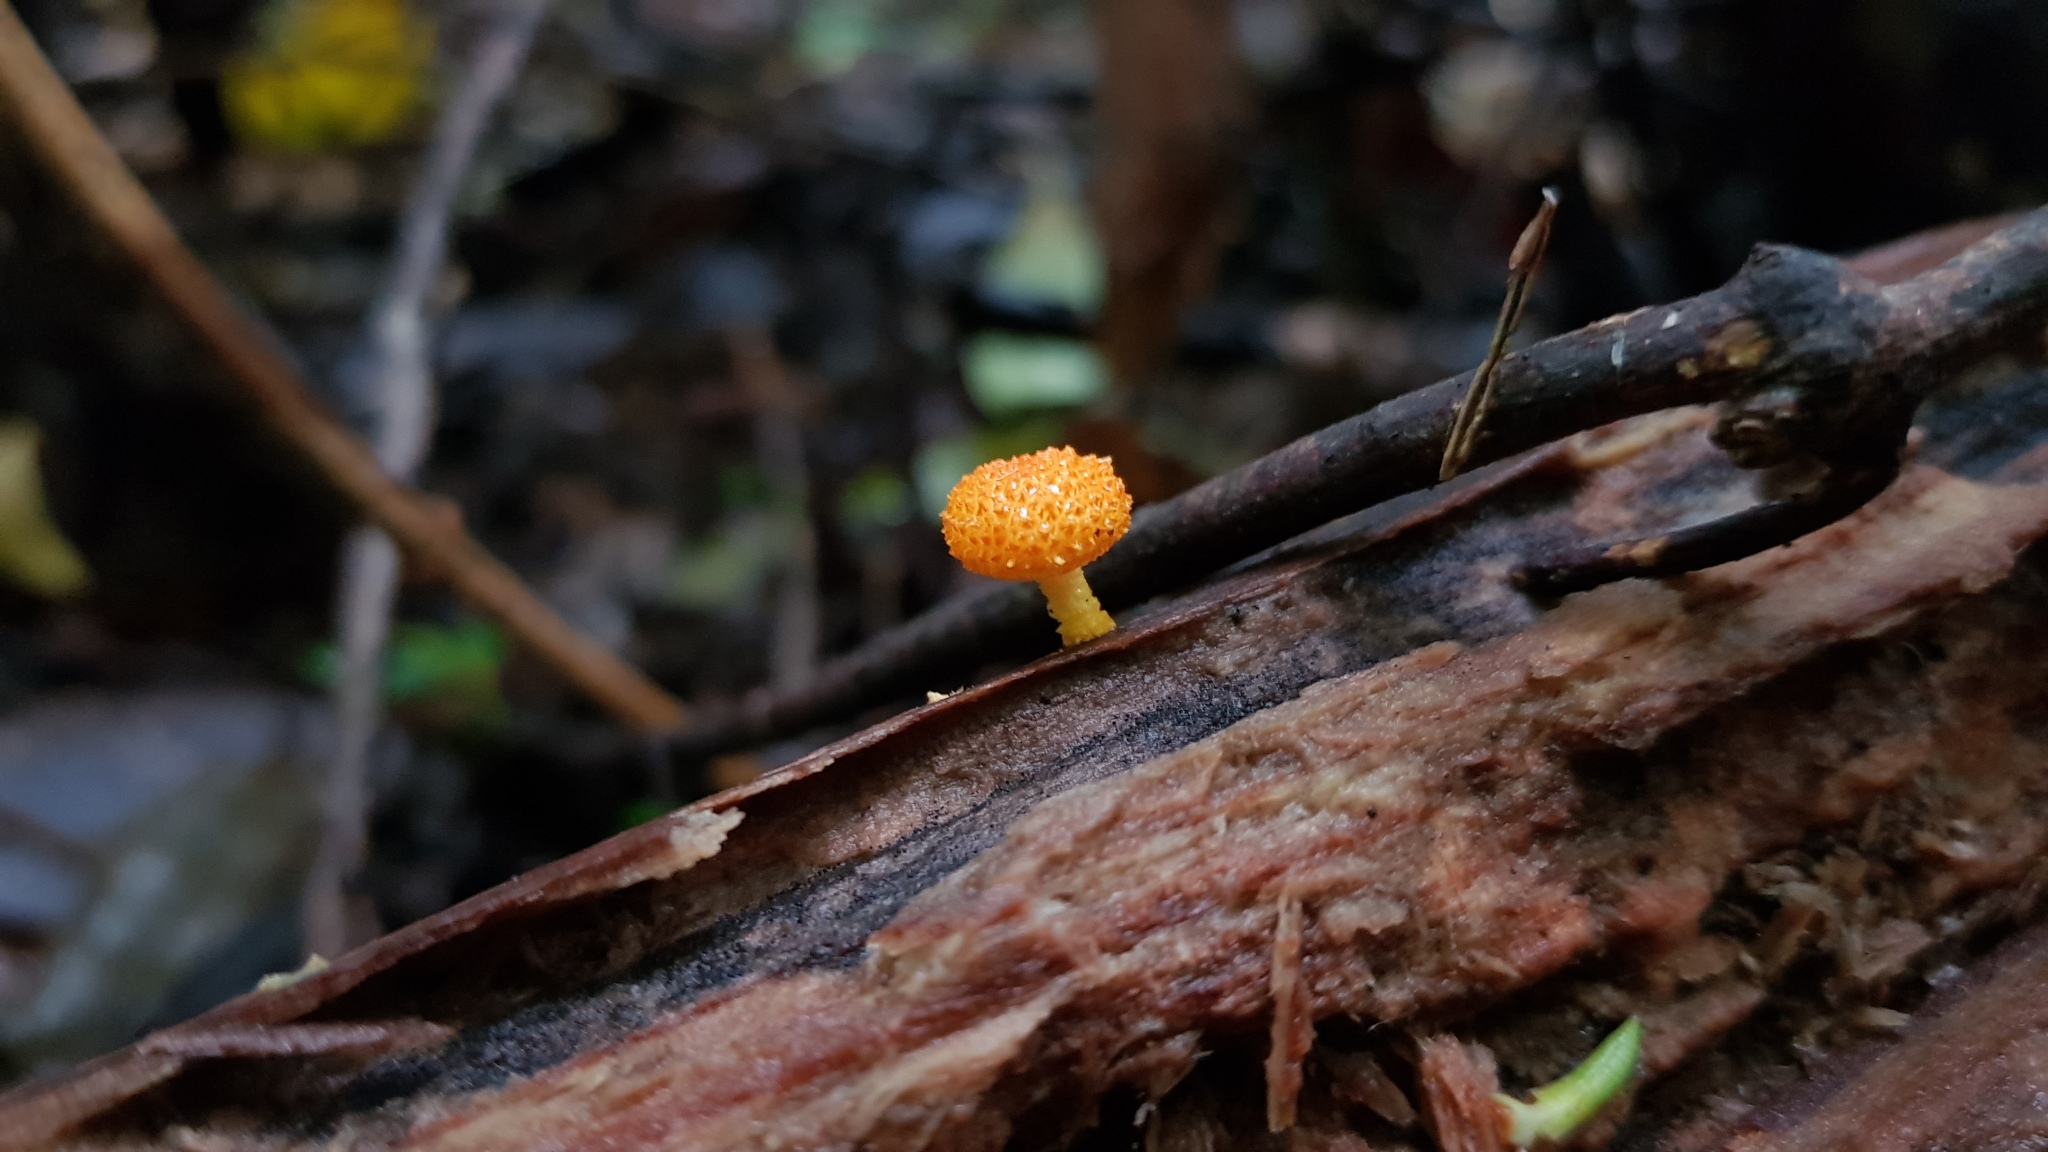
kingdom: Fungi
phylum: Basidiomycota
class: Agaricomycetes
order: Agaricales
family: Physalacriaceae
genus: Cyptotrama
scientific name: Cyptotrama asprata
